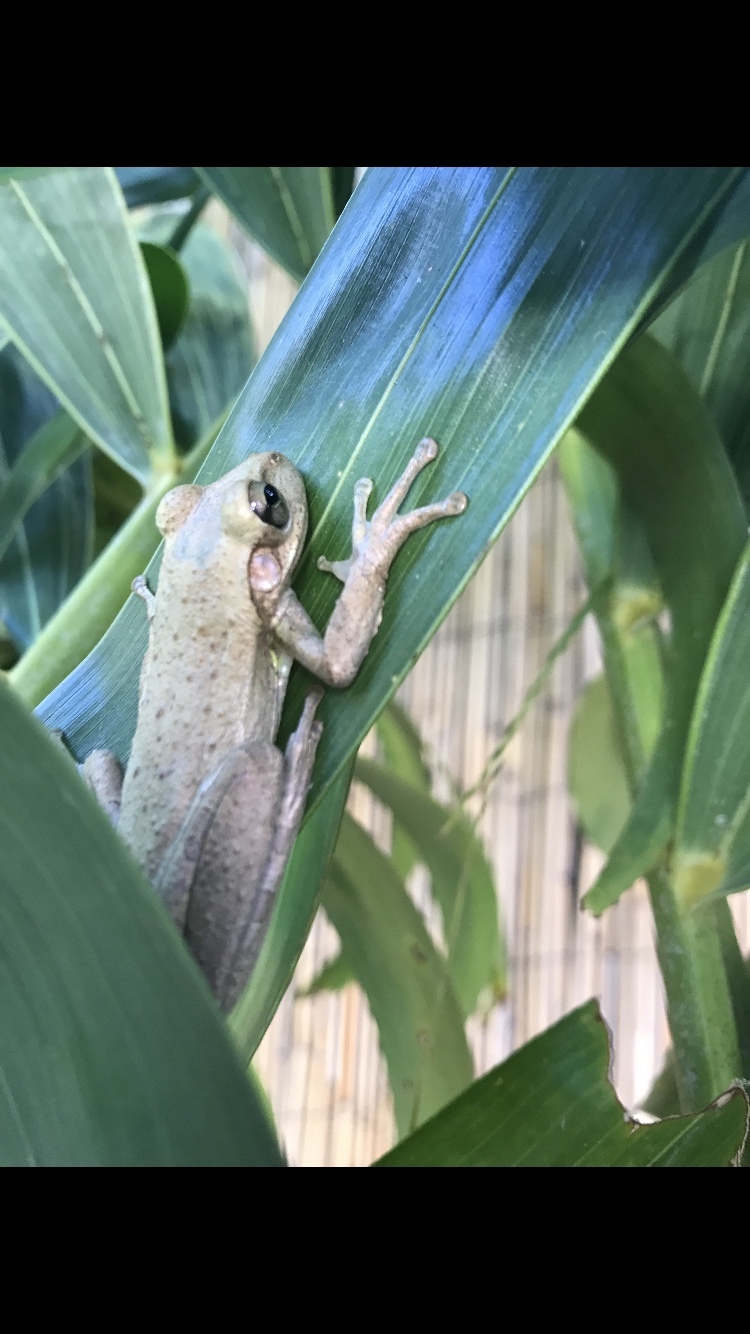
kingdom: Animalia
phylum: Chordata
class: Amphibia
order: Anura
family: Hylidae
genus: Osteopilus
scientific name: Osteopilus septentrionalis
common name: Cuban treefrog
